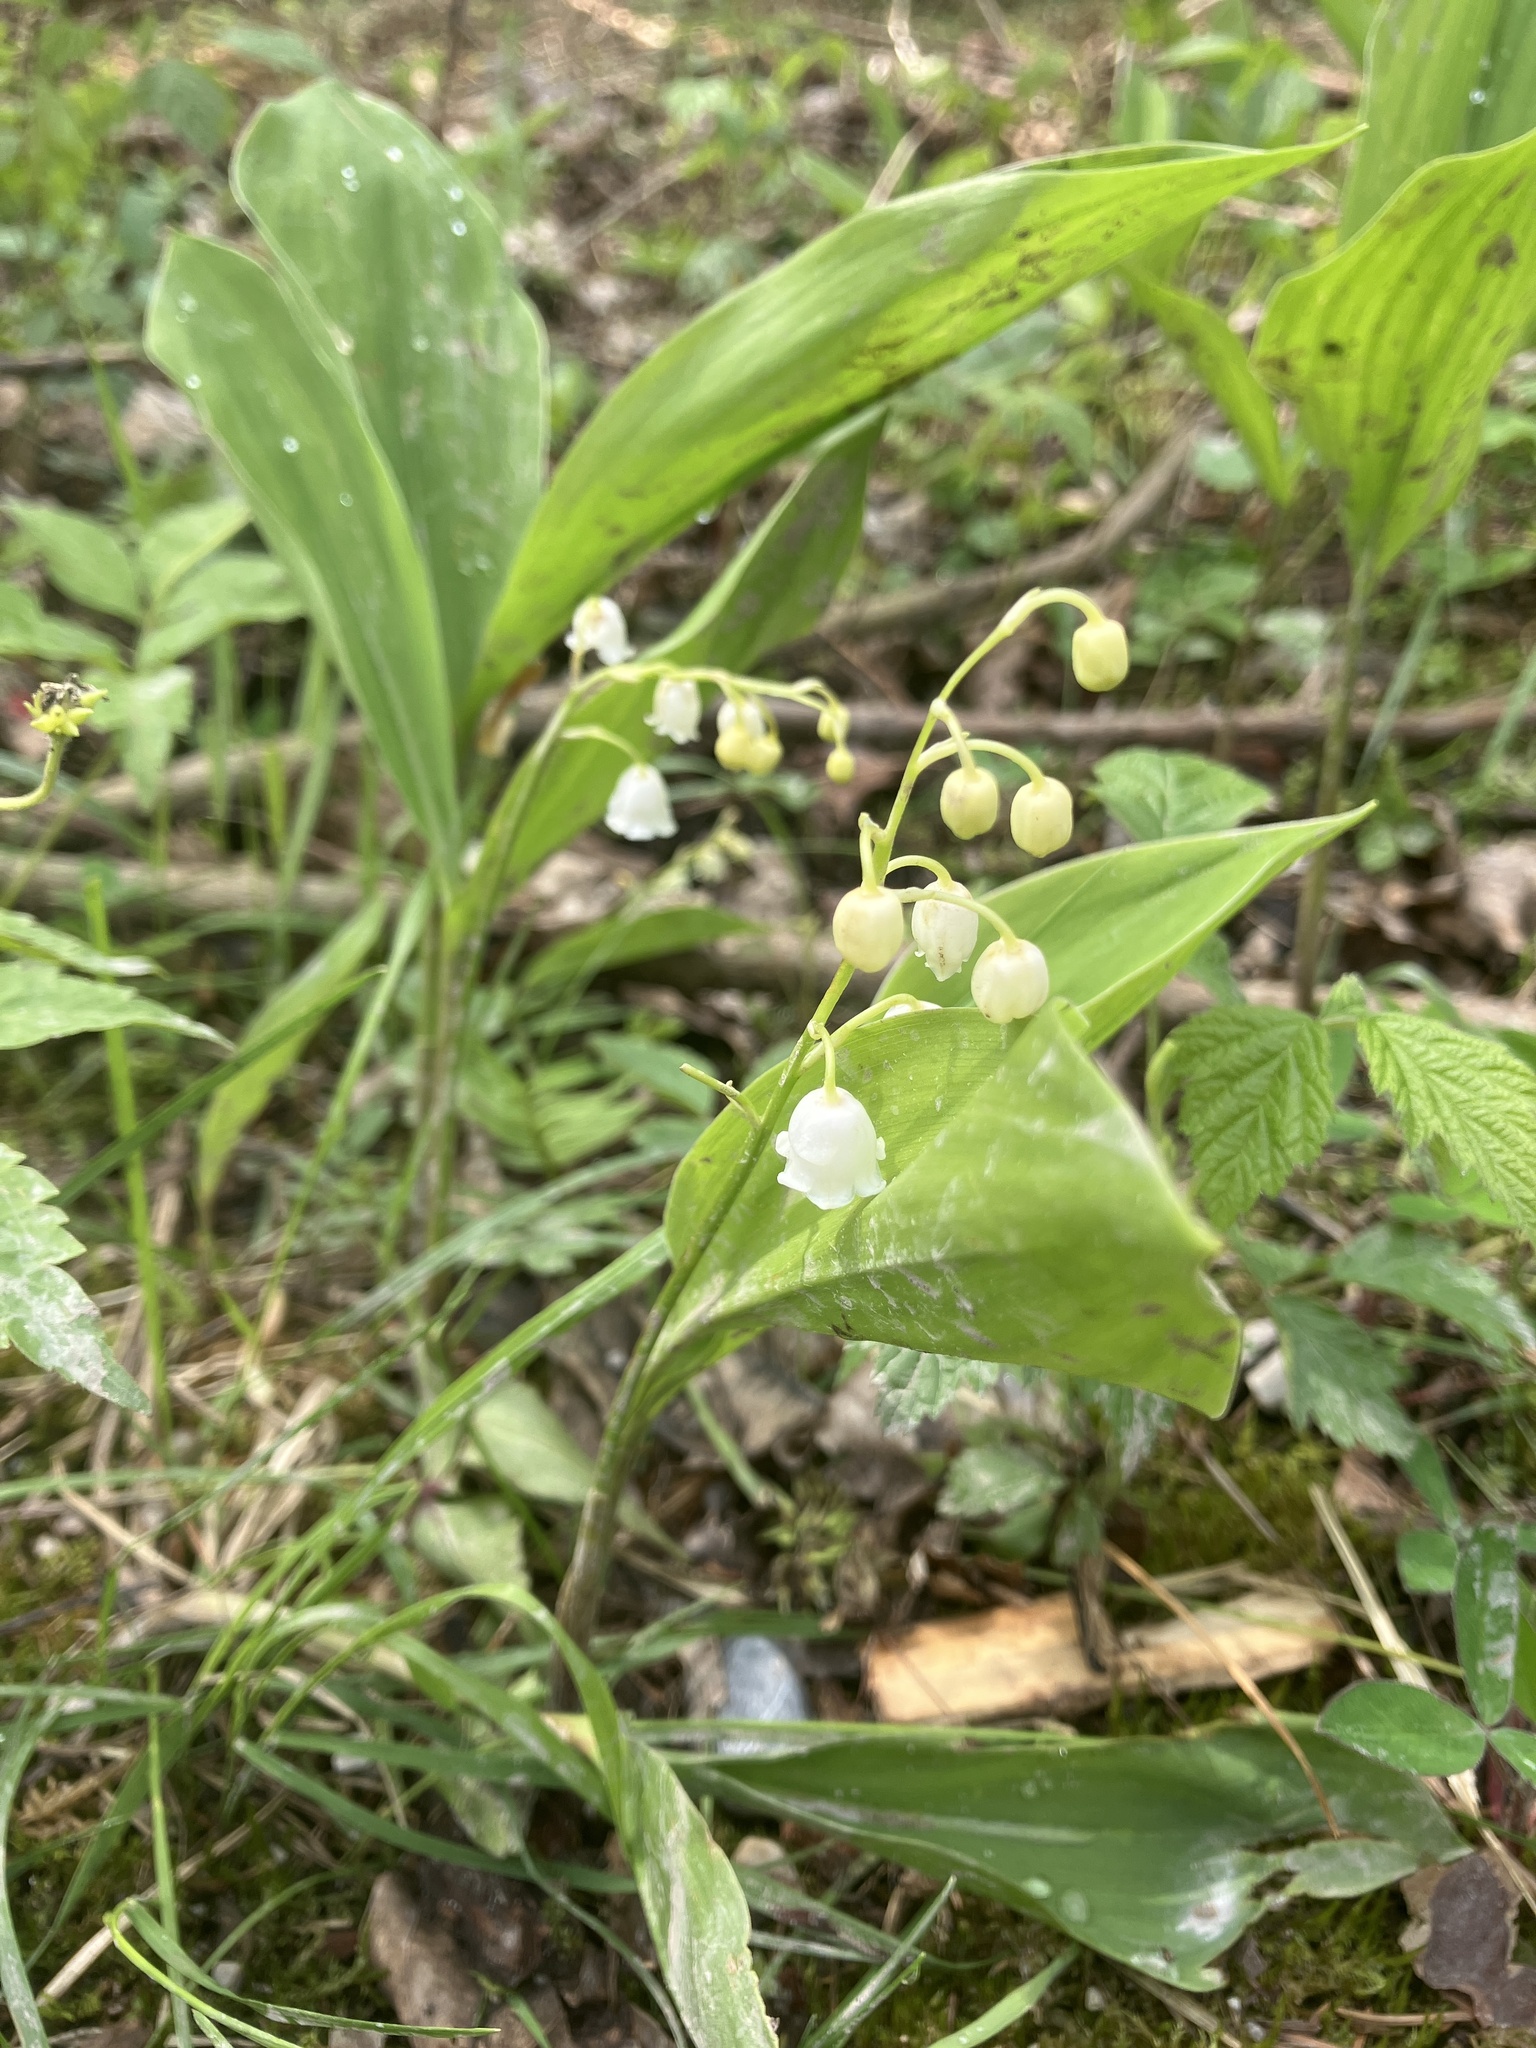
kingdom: Plantae
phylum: Tracheophyta
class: Liliopsida
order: Asparagales
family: Asparagaceae
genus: Convallaria
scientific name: Convallaria majalis
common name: Lily-of-the-valley
